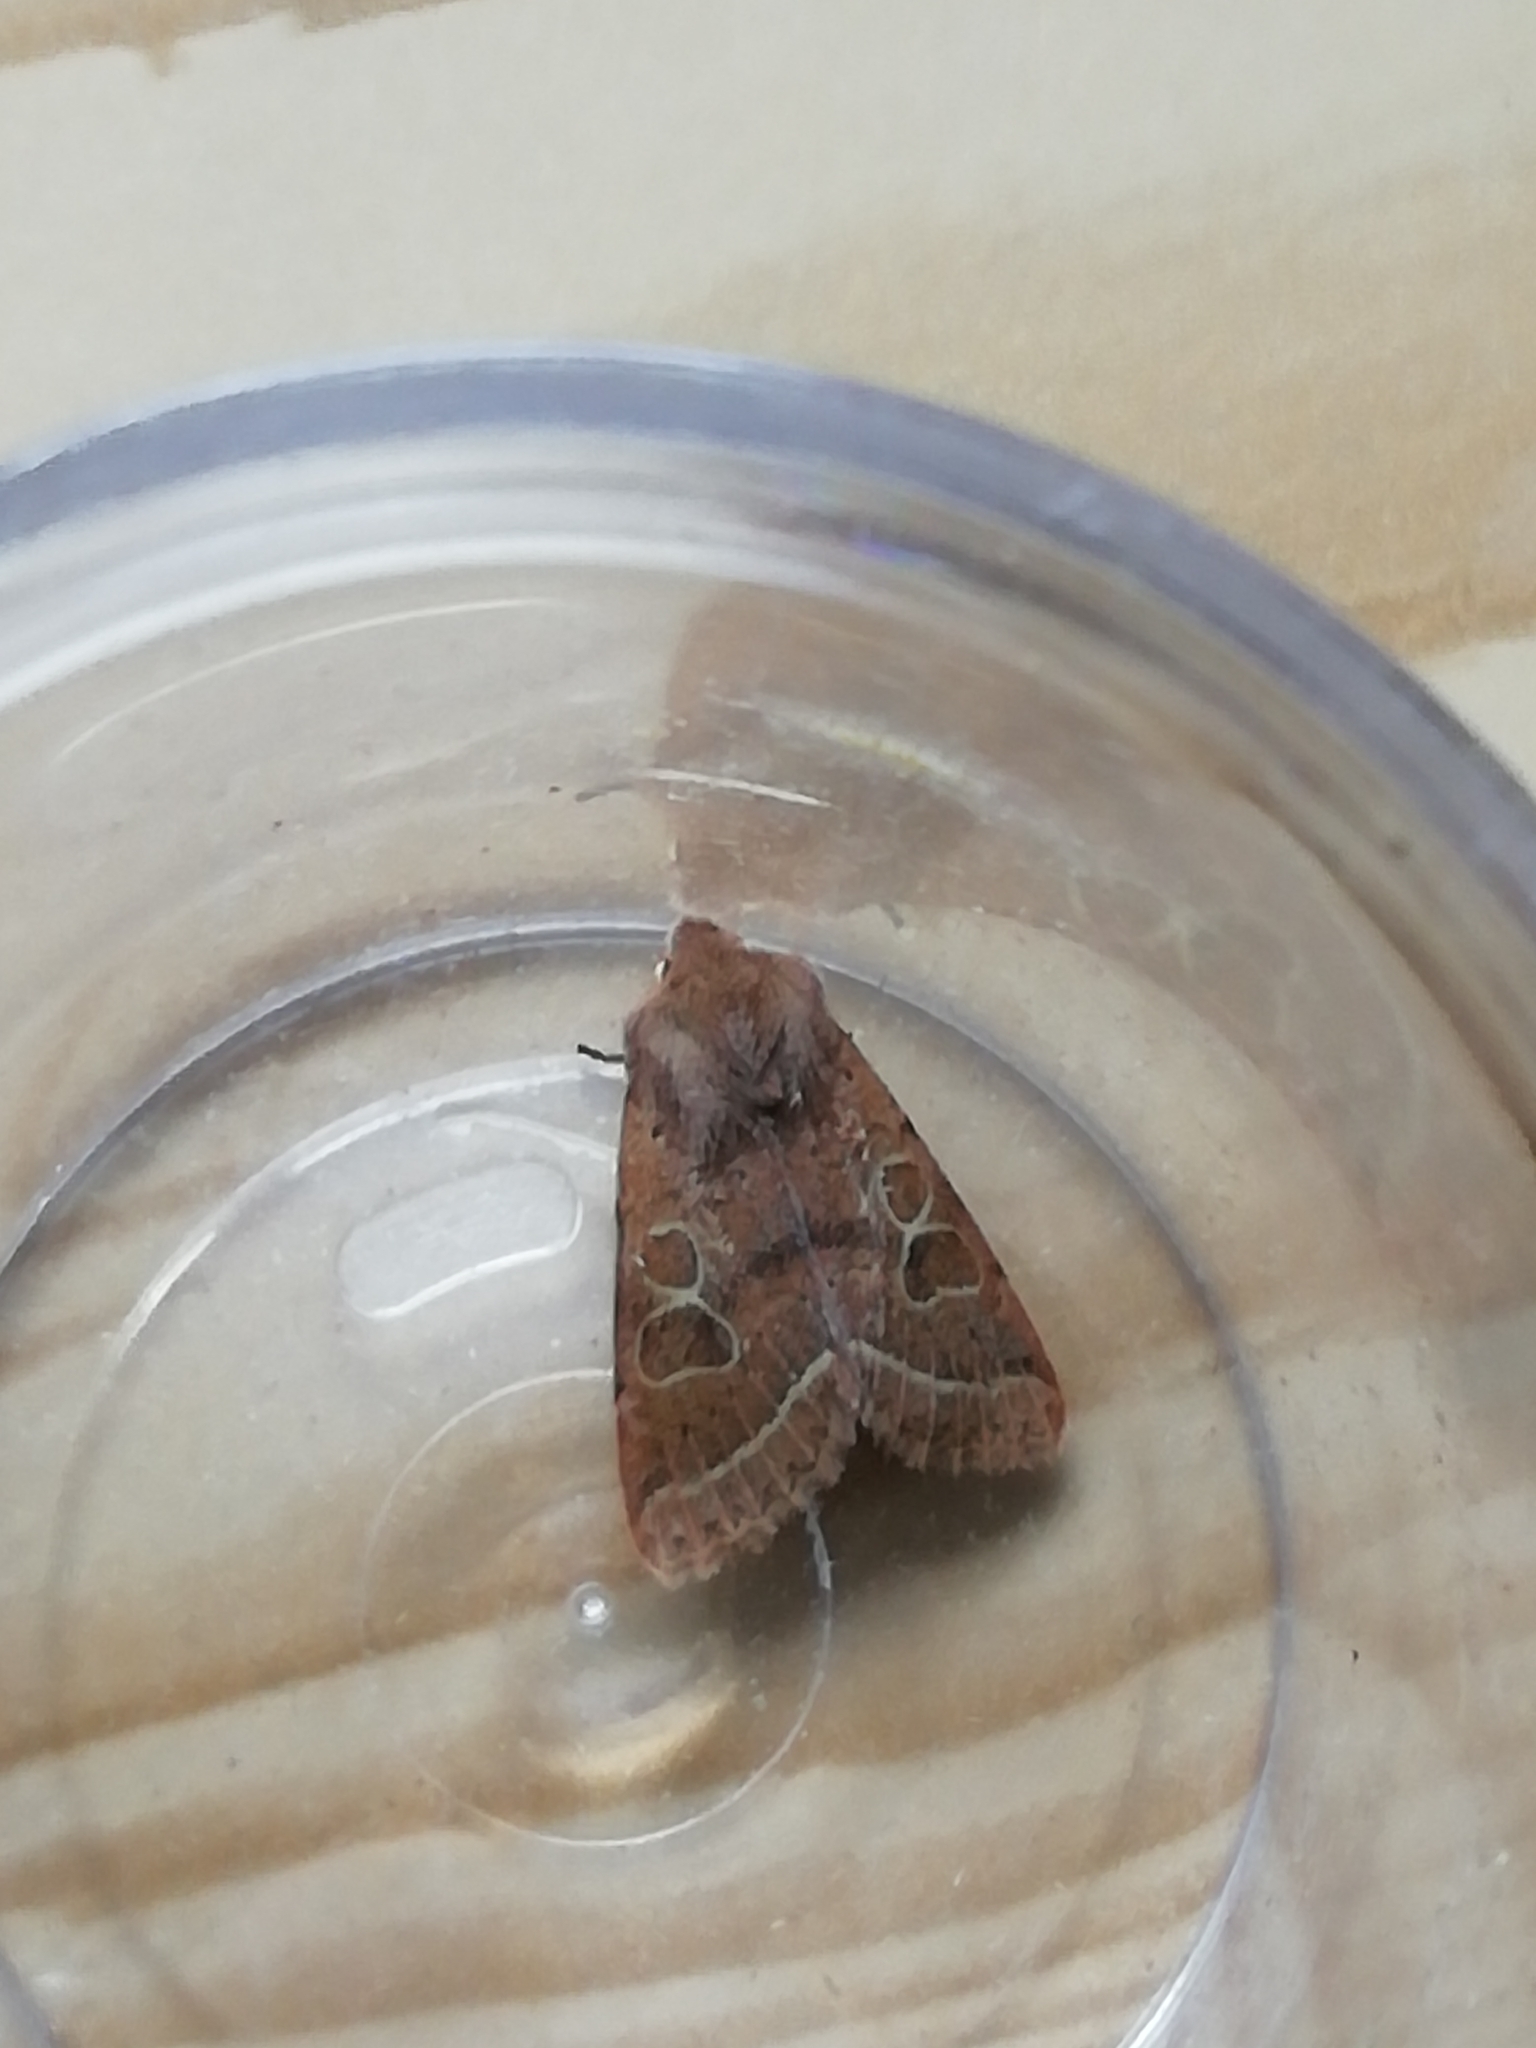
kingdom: Animalia
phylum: Arthropoda
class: Insecta
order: Lepidoptera
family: Noctuidae
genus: Orthosia
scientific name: Orthosia cerasi
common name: Common quaker
